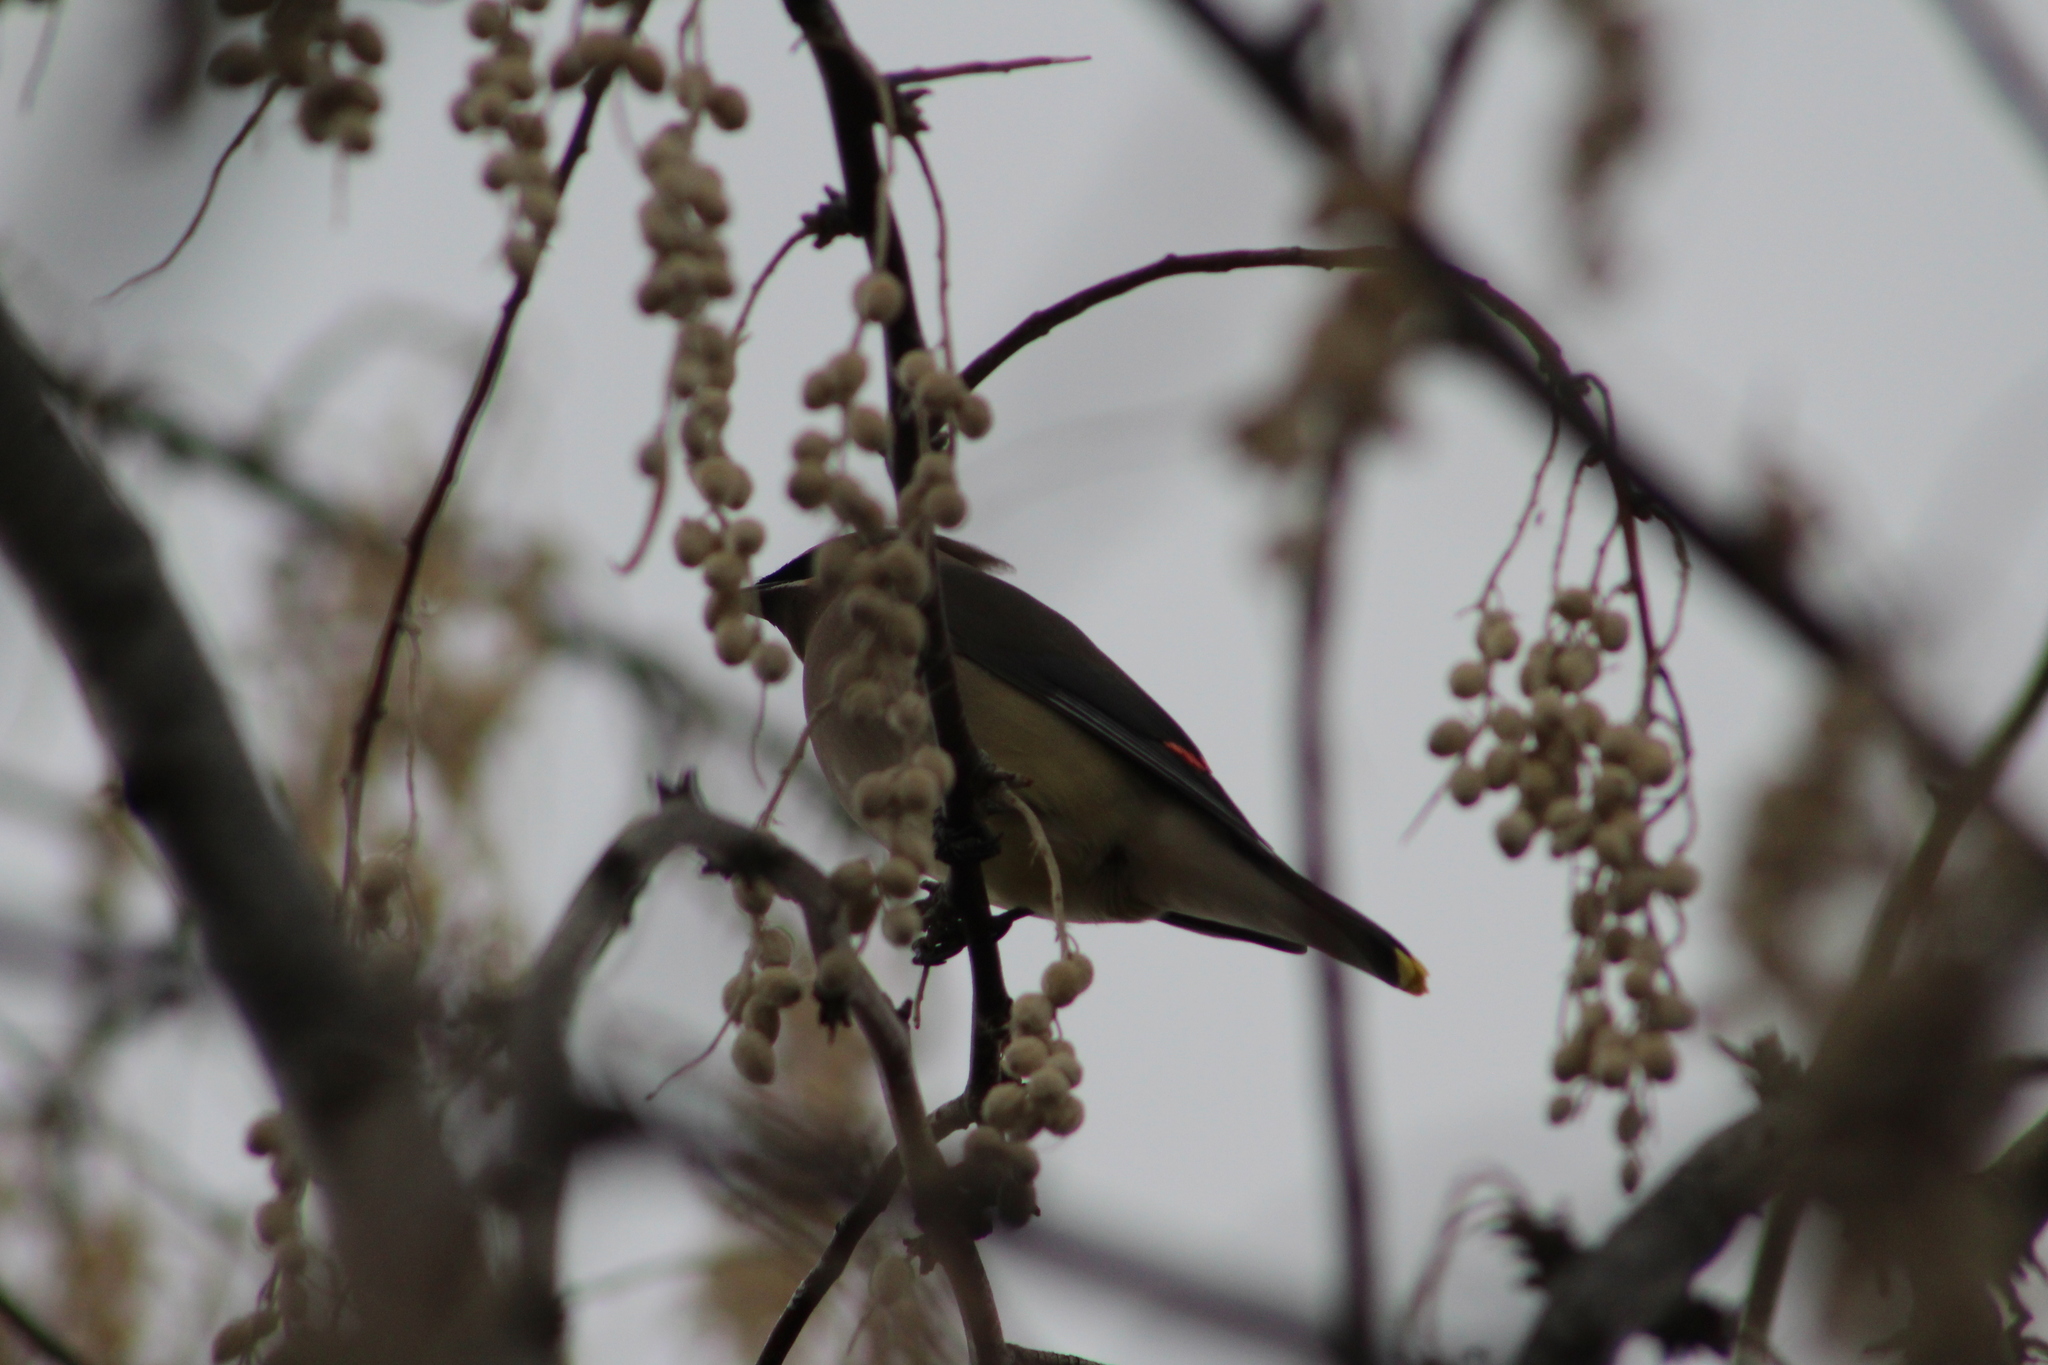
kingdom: Animalia
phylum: Chordata
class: Aves
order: Passeriformes
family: Bombycillidae
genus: Bombycilla
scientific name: Bombycilla cedrorum
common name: Cedar waxwing
